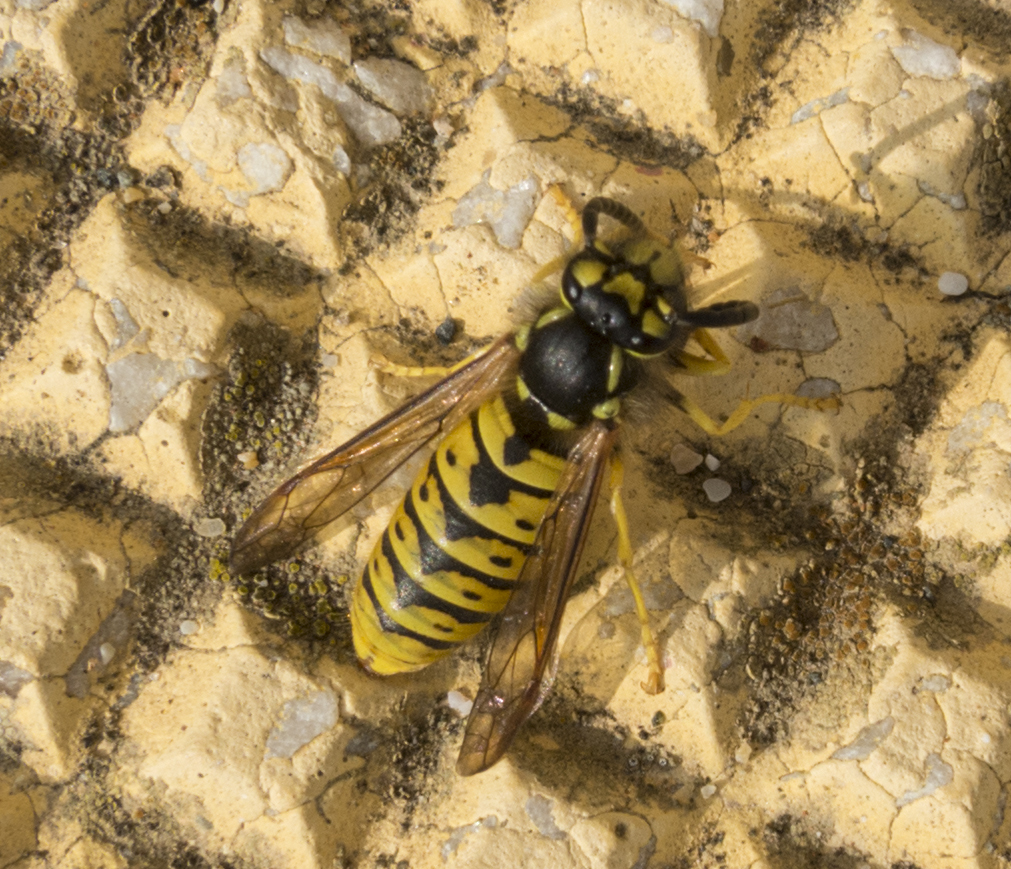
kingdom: Animalia
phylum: Arthropoda
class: Insecta
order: Hymenoptera
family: Vespidae
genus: Vespula
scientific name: Vespula germanica
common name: German wasp
